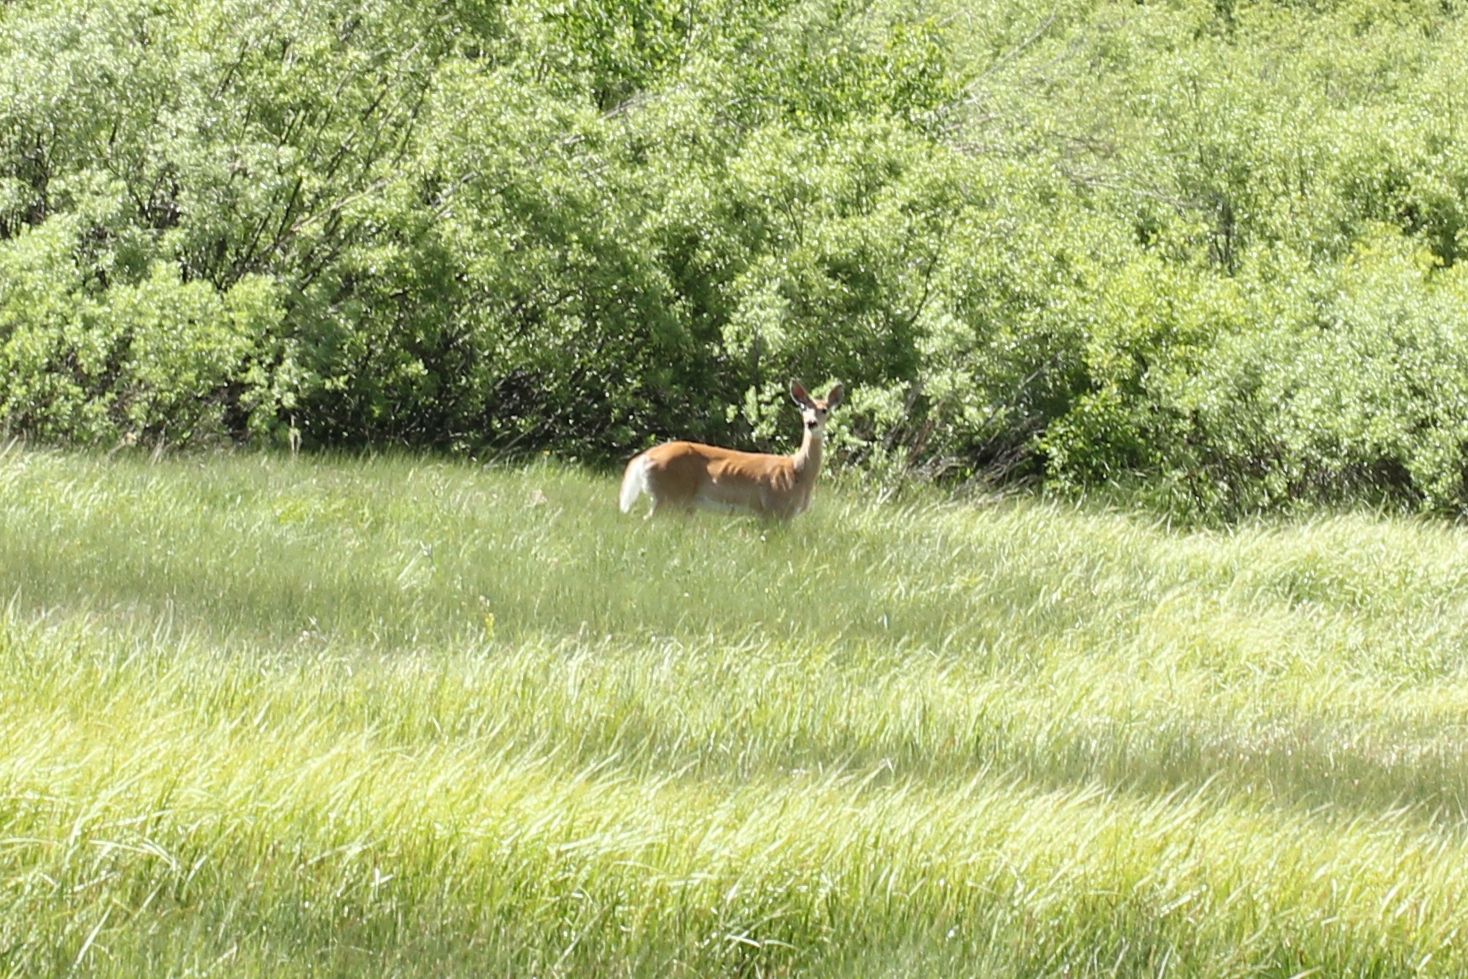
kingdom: Animalia
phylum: Chordata
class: Mammalia
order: Artiodactyla
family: Cervidae
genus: Odocoileus
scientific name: Odocoileus virginianus
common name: White-tailed deer
